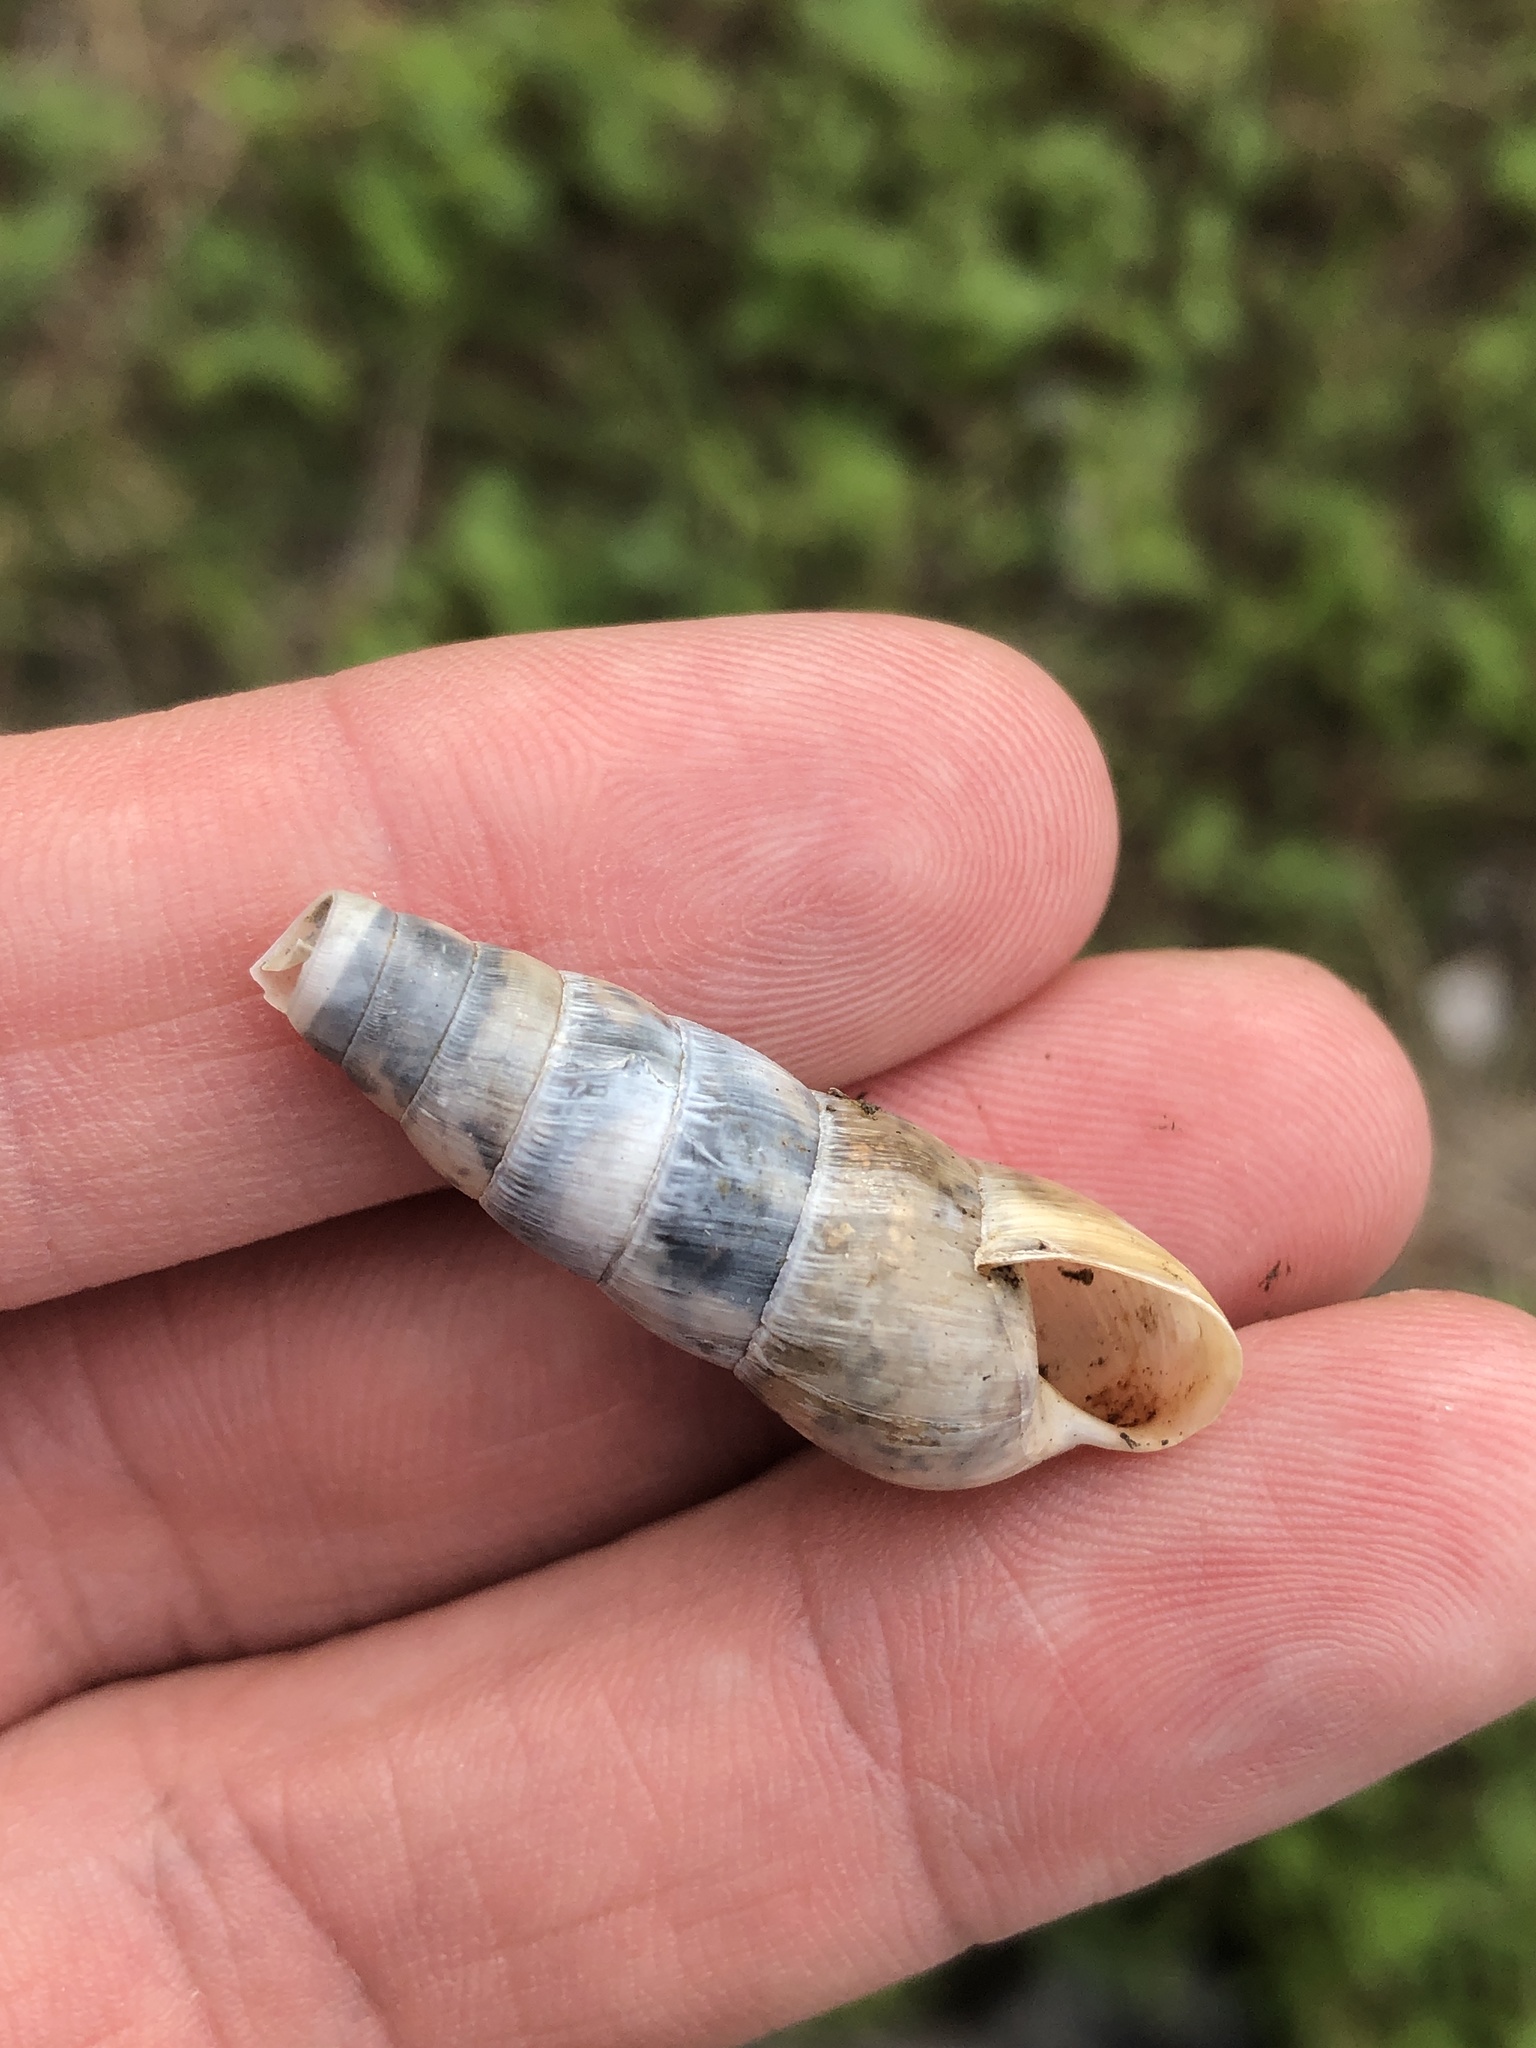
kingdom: Animalia
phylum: Mollusca
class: Gastropoda
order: Stylommatophora
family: Achatinidae
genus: Rumina
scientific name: Rumina decollata
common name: Decollate snail
